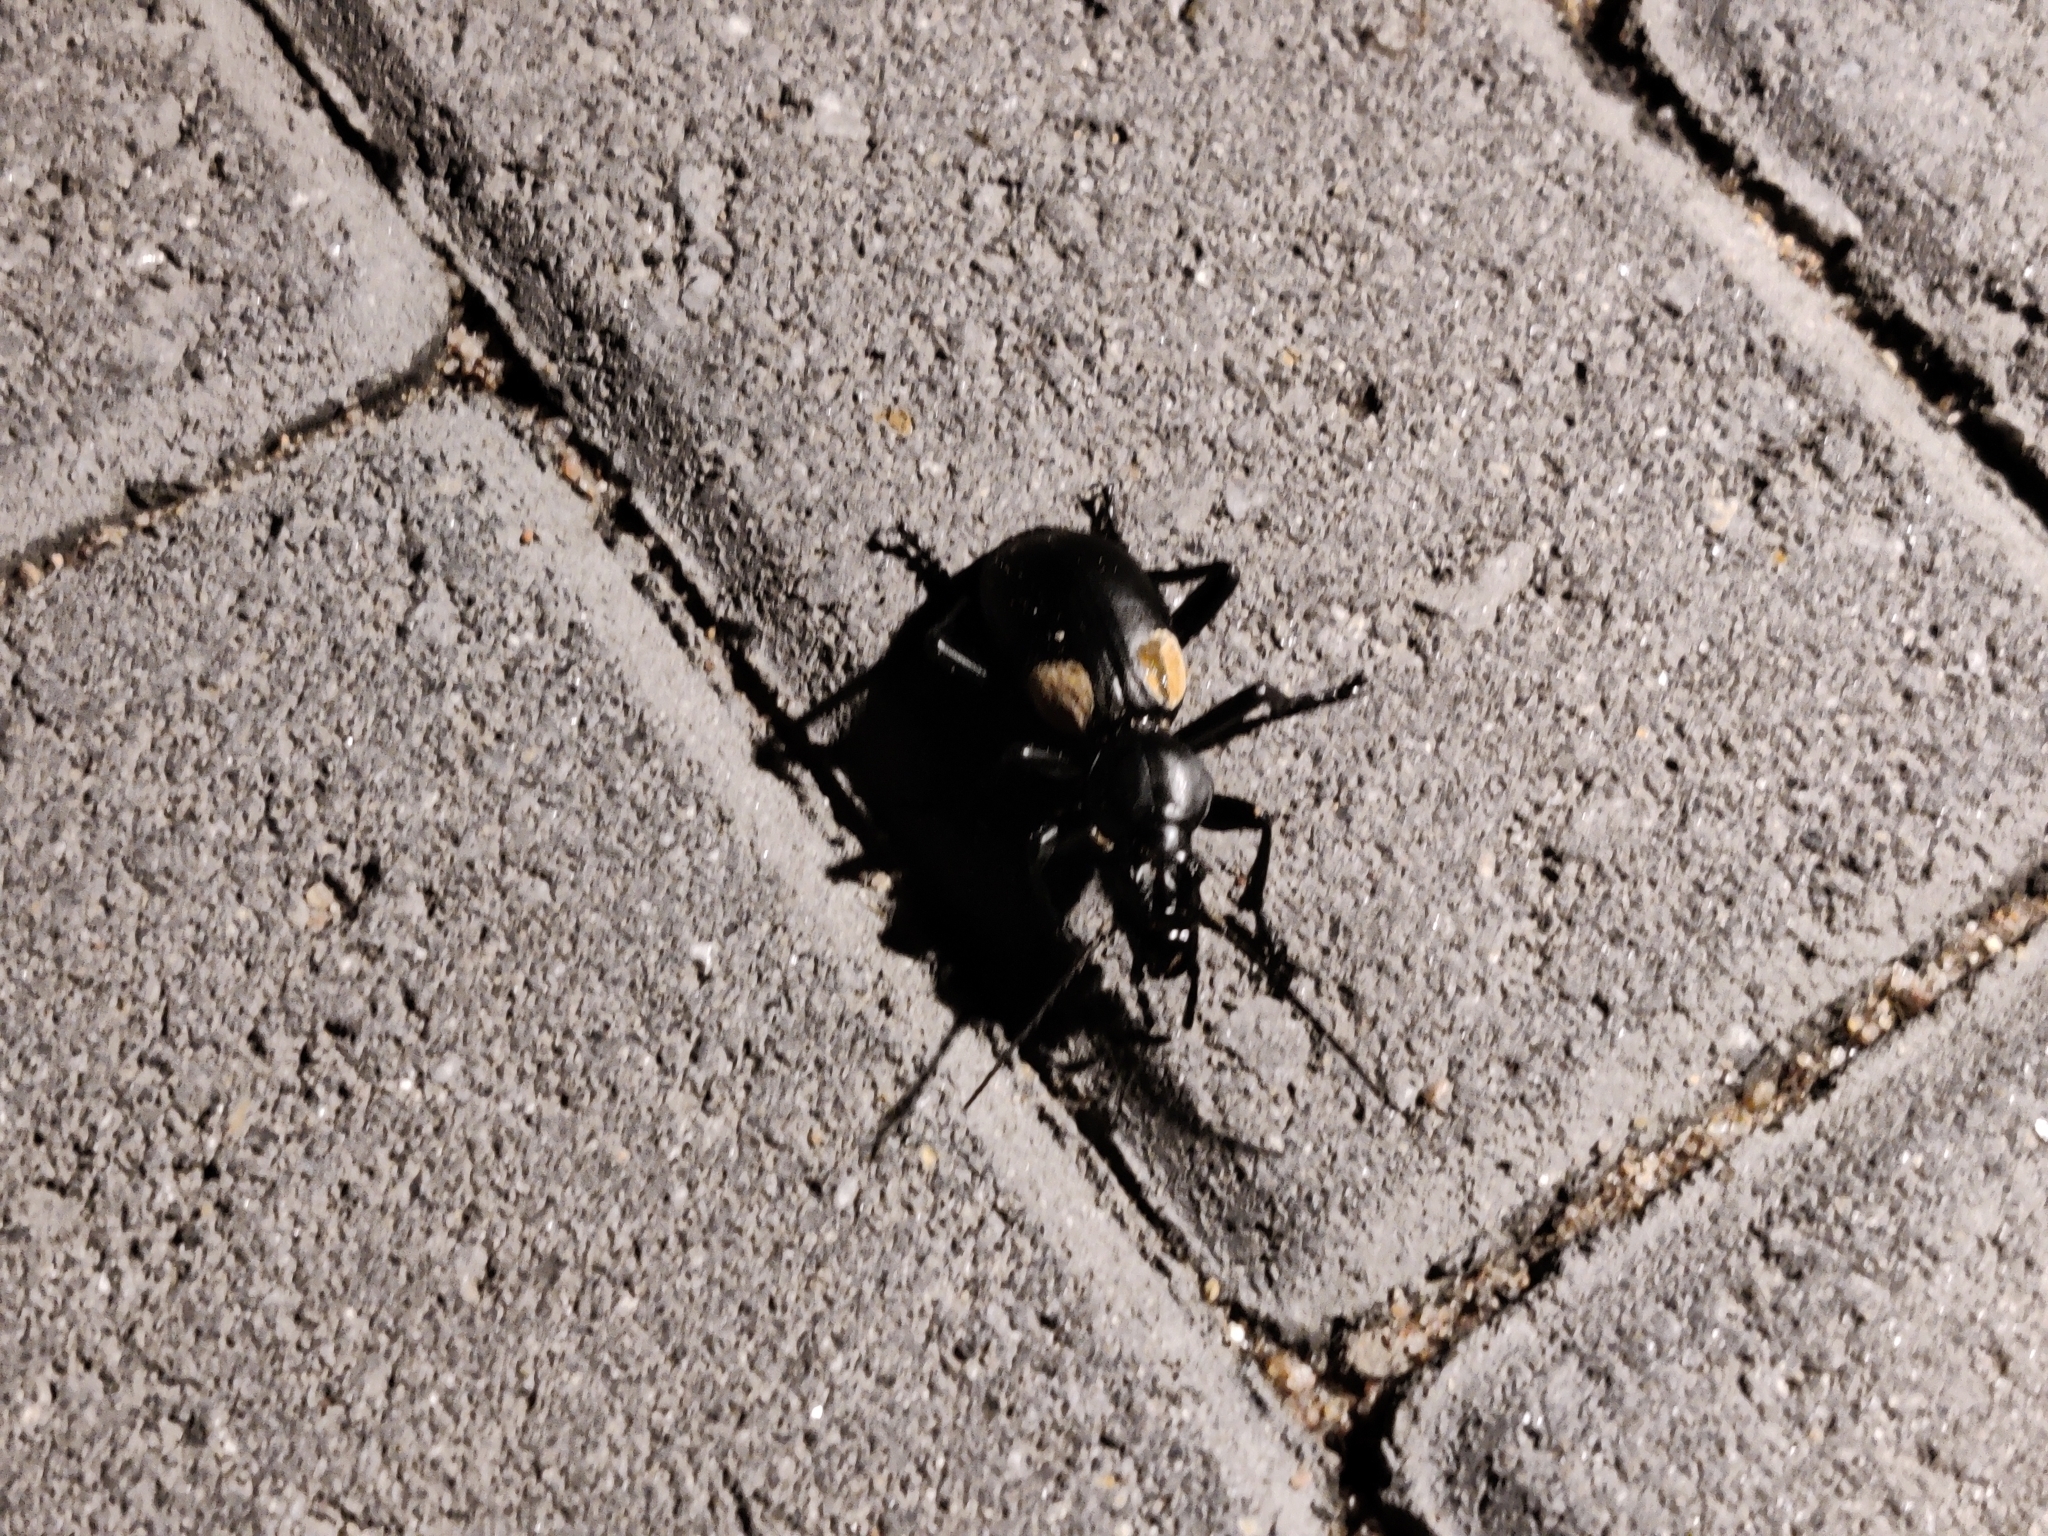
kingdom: Animalia
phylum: Arthropoda
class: Insecta
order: Coleoptera
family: Carabidae
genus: Anthia
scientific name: Anthia
